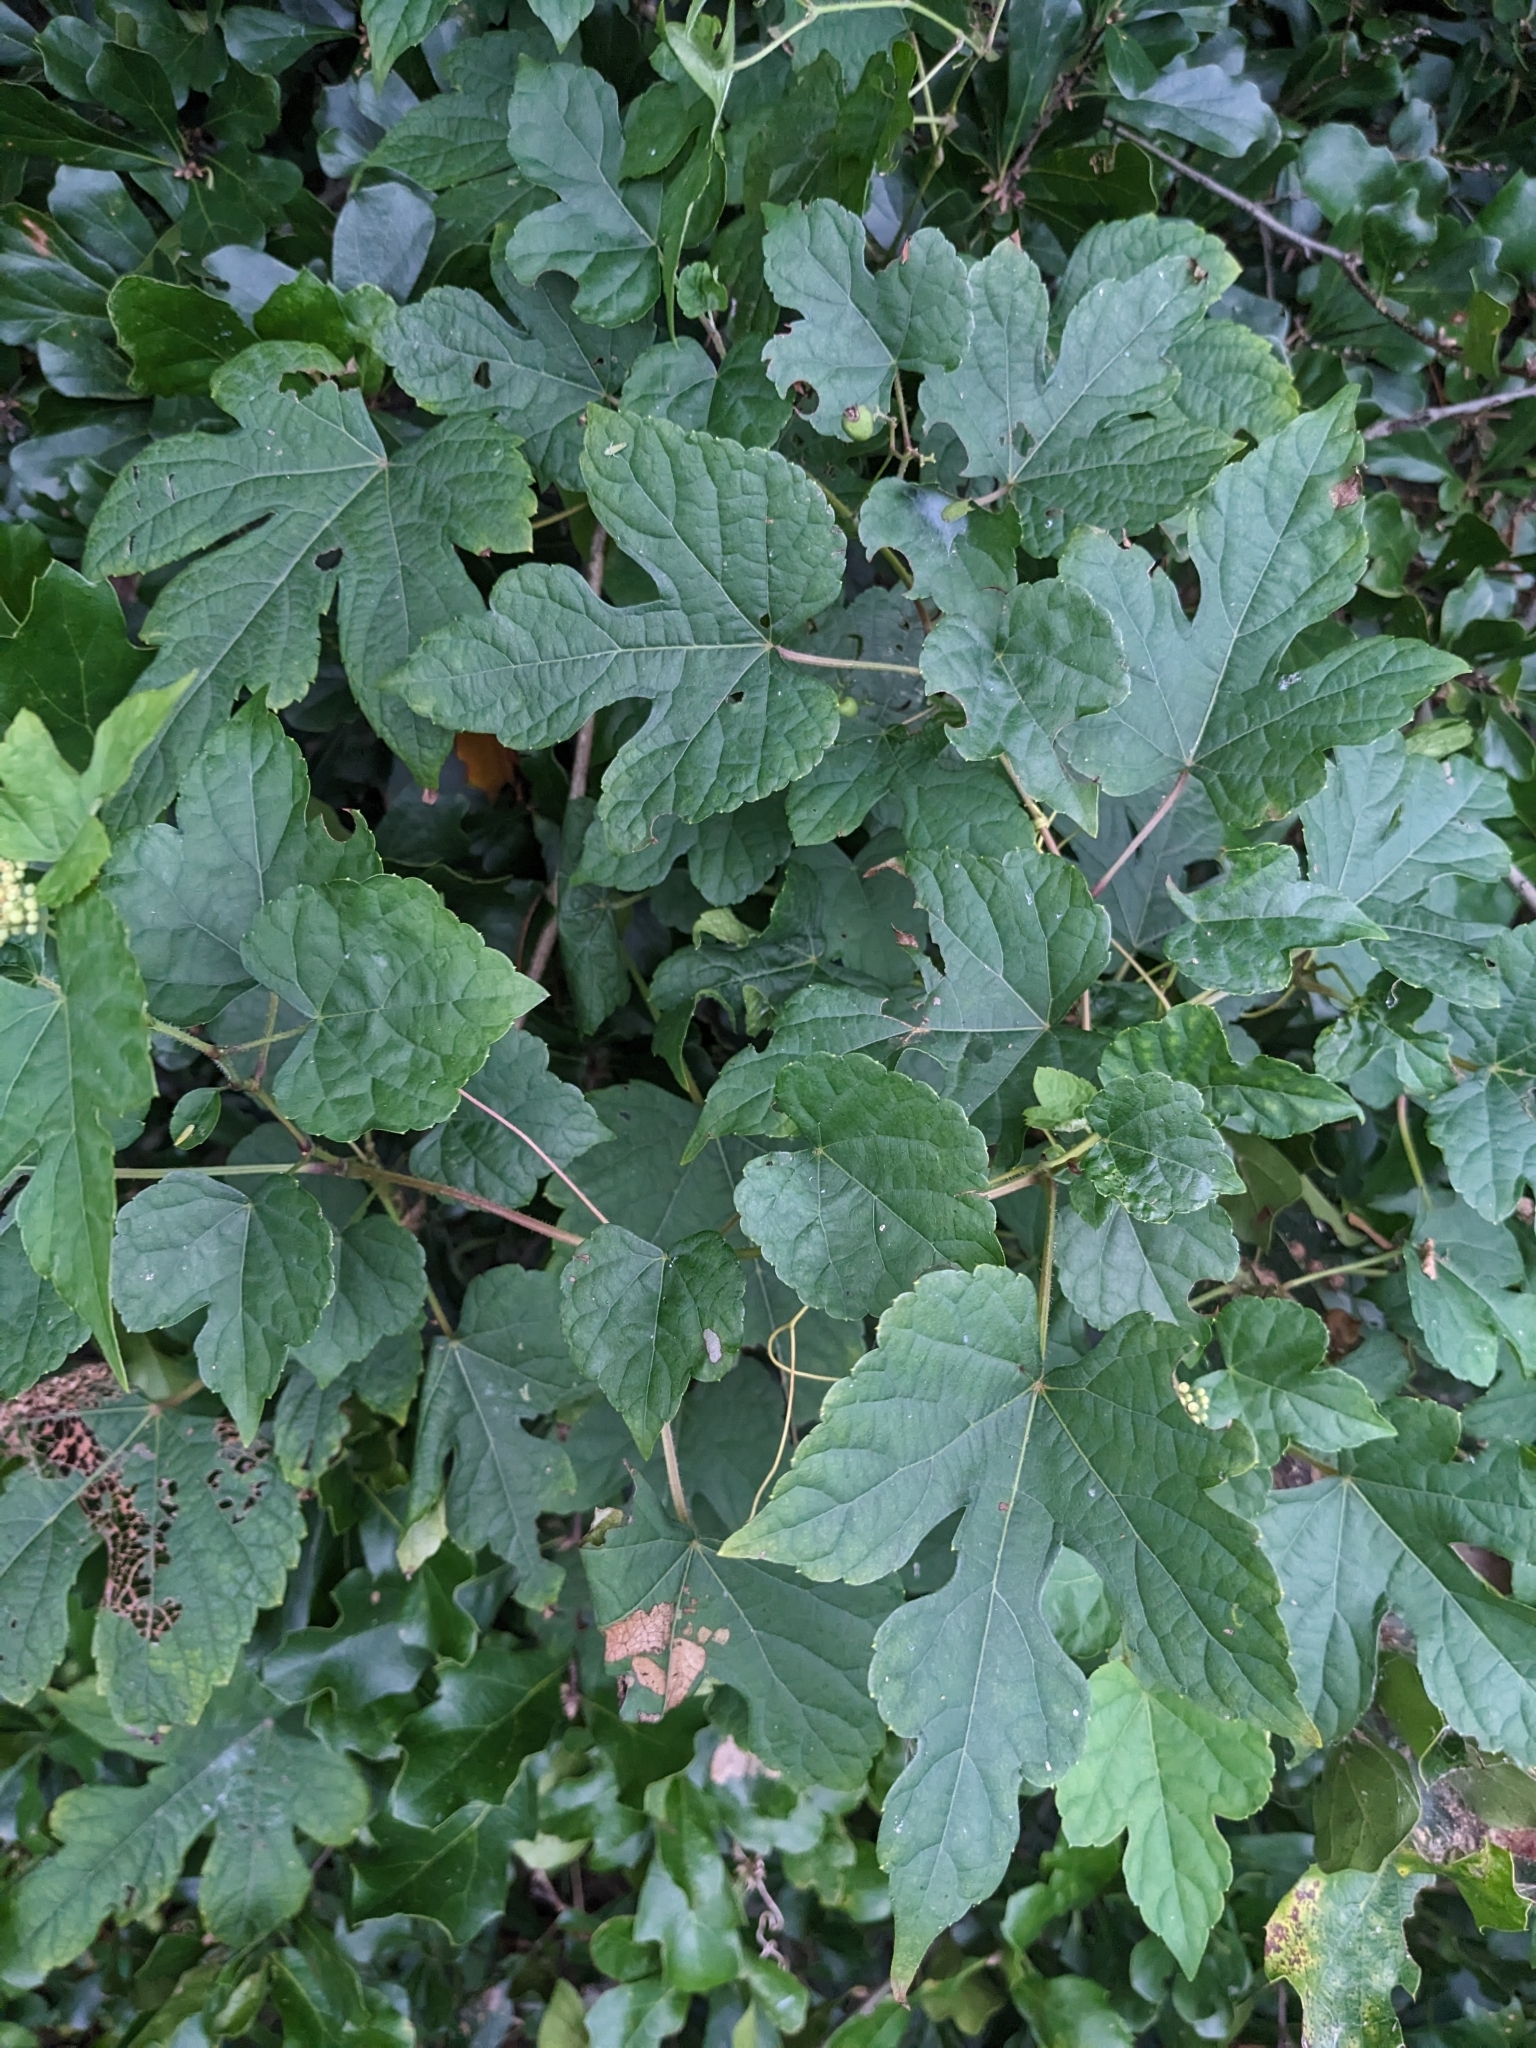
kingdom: Plantae
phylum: Tracheophyta
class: Magnoliopsida
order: Vitales
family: Vitaceae
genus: Ampelopsis
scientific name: Ampelopsis glandulosa
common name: Amur peppervine
